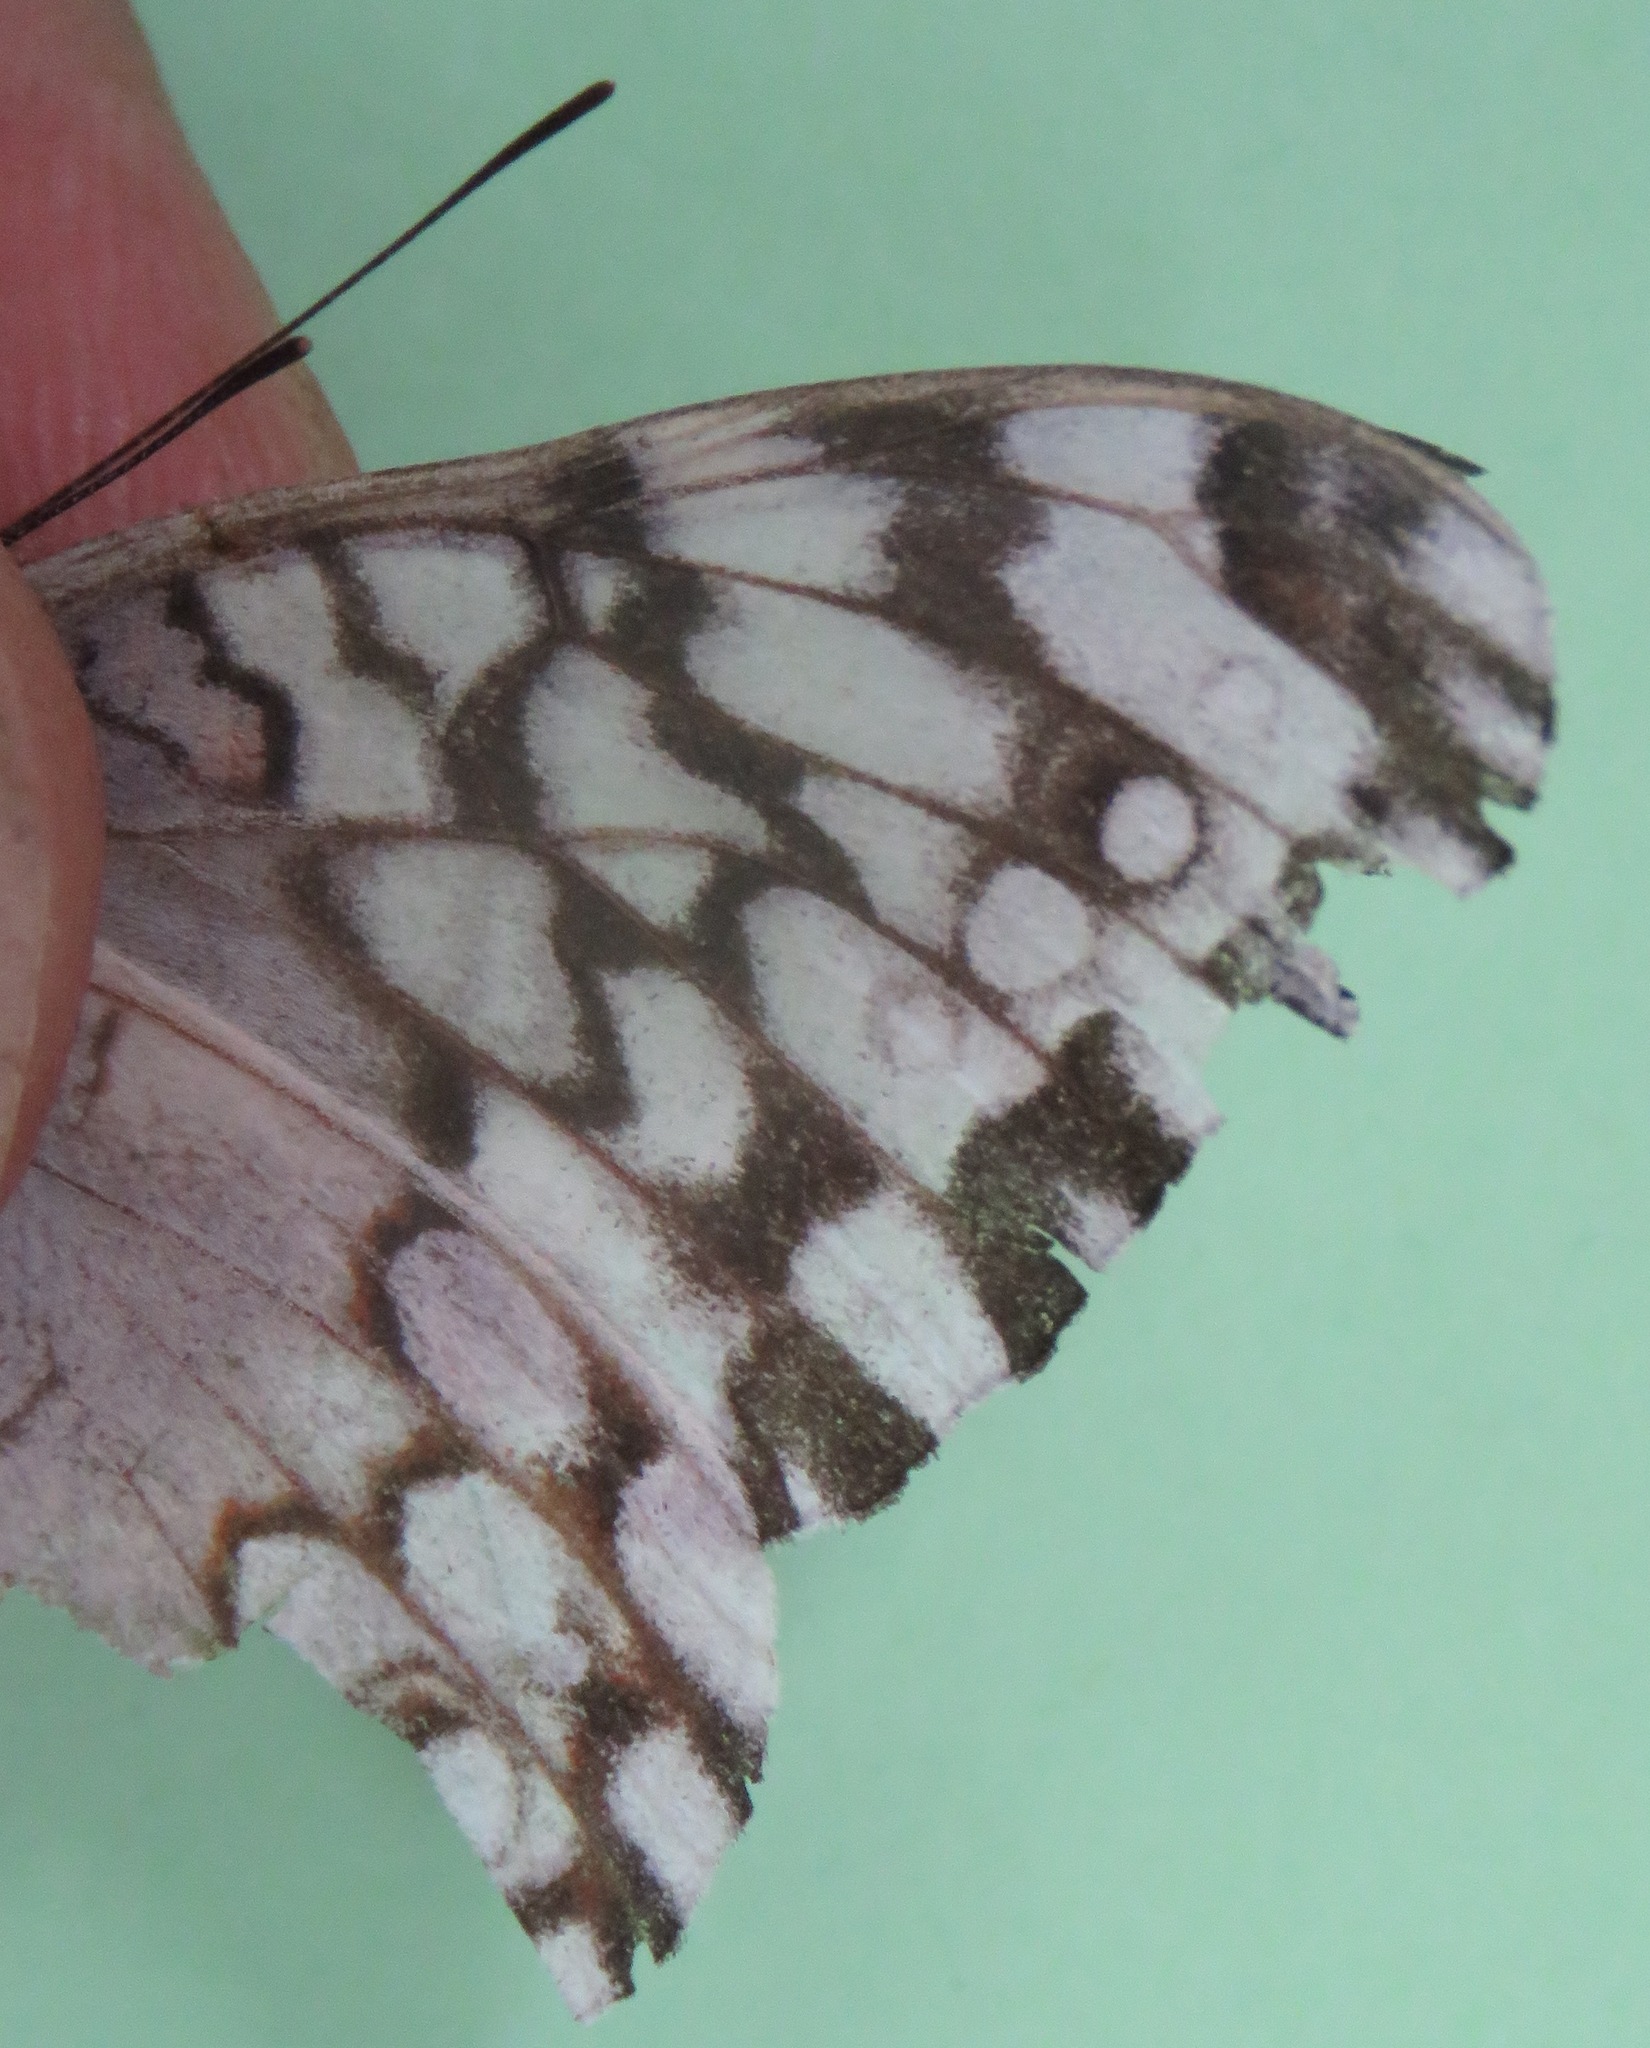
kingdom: Animalia
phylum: Arthropoda
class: Insecta
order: Lepidoptera
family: Nymphalidae
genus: Hamadryas
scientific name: Hamadryas februa
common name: Gray cracker
